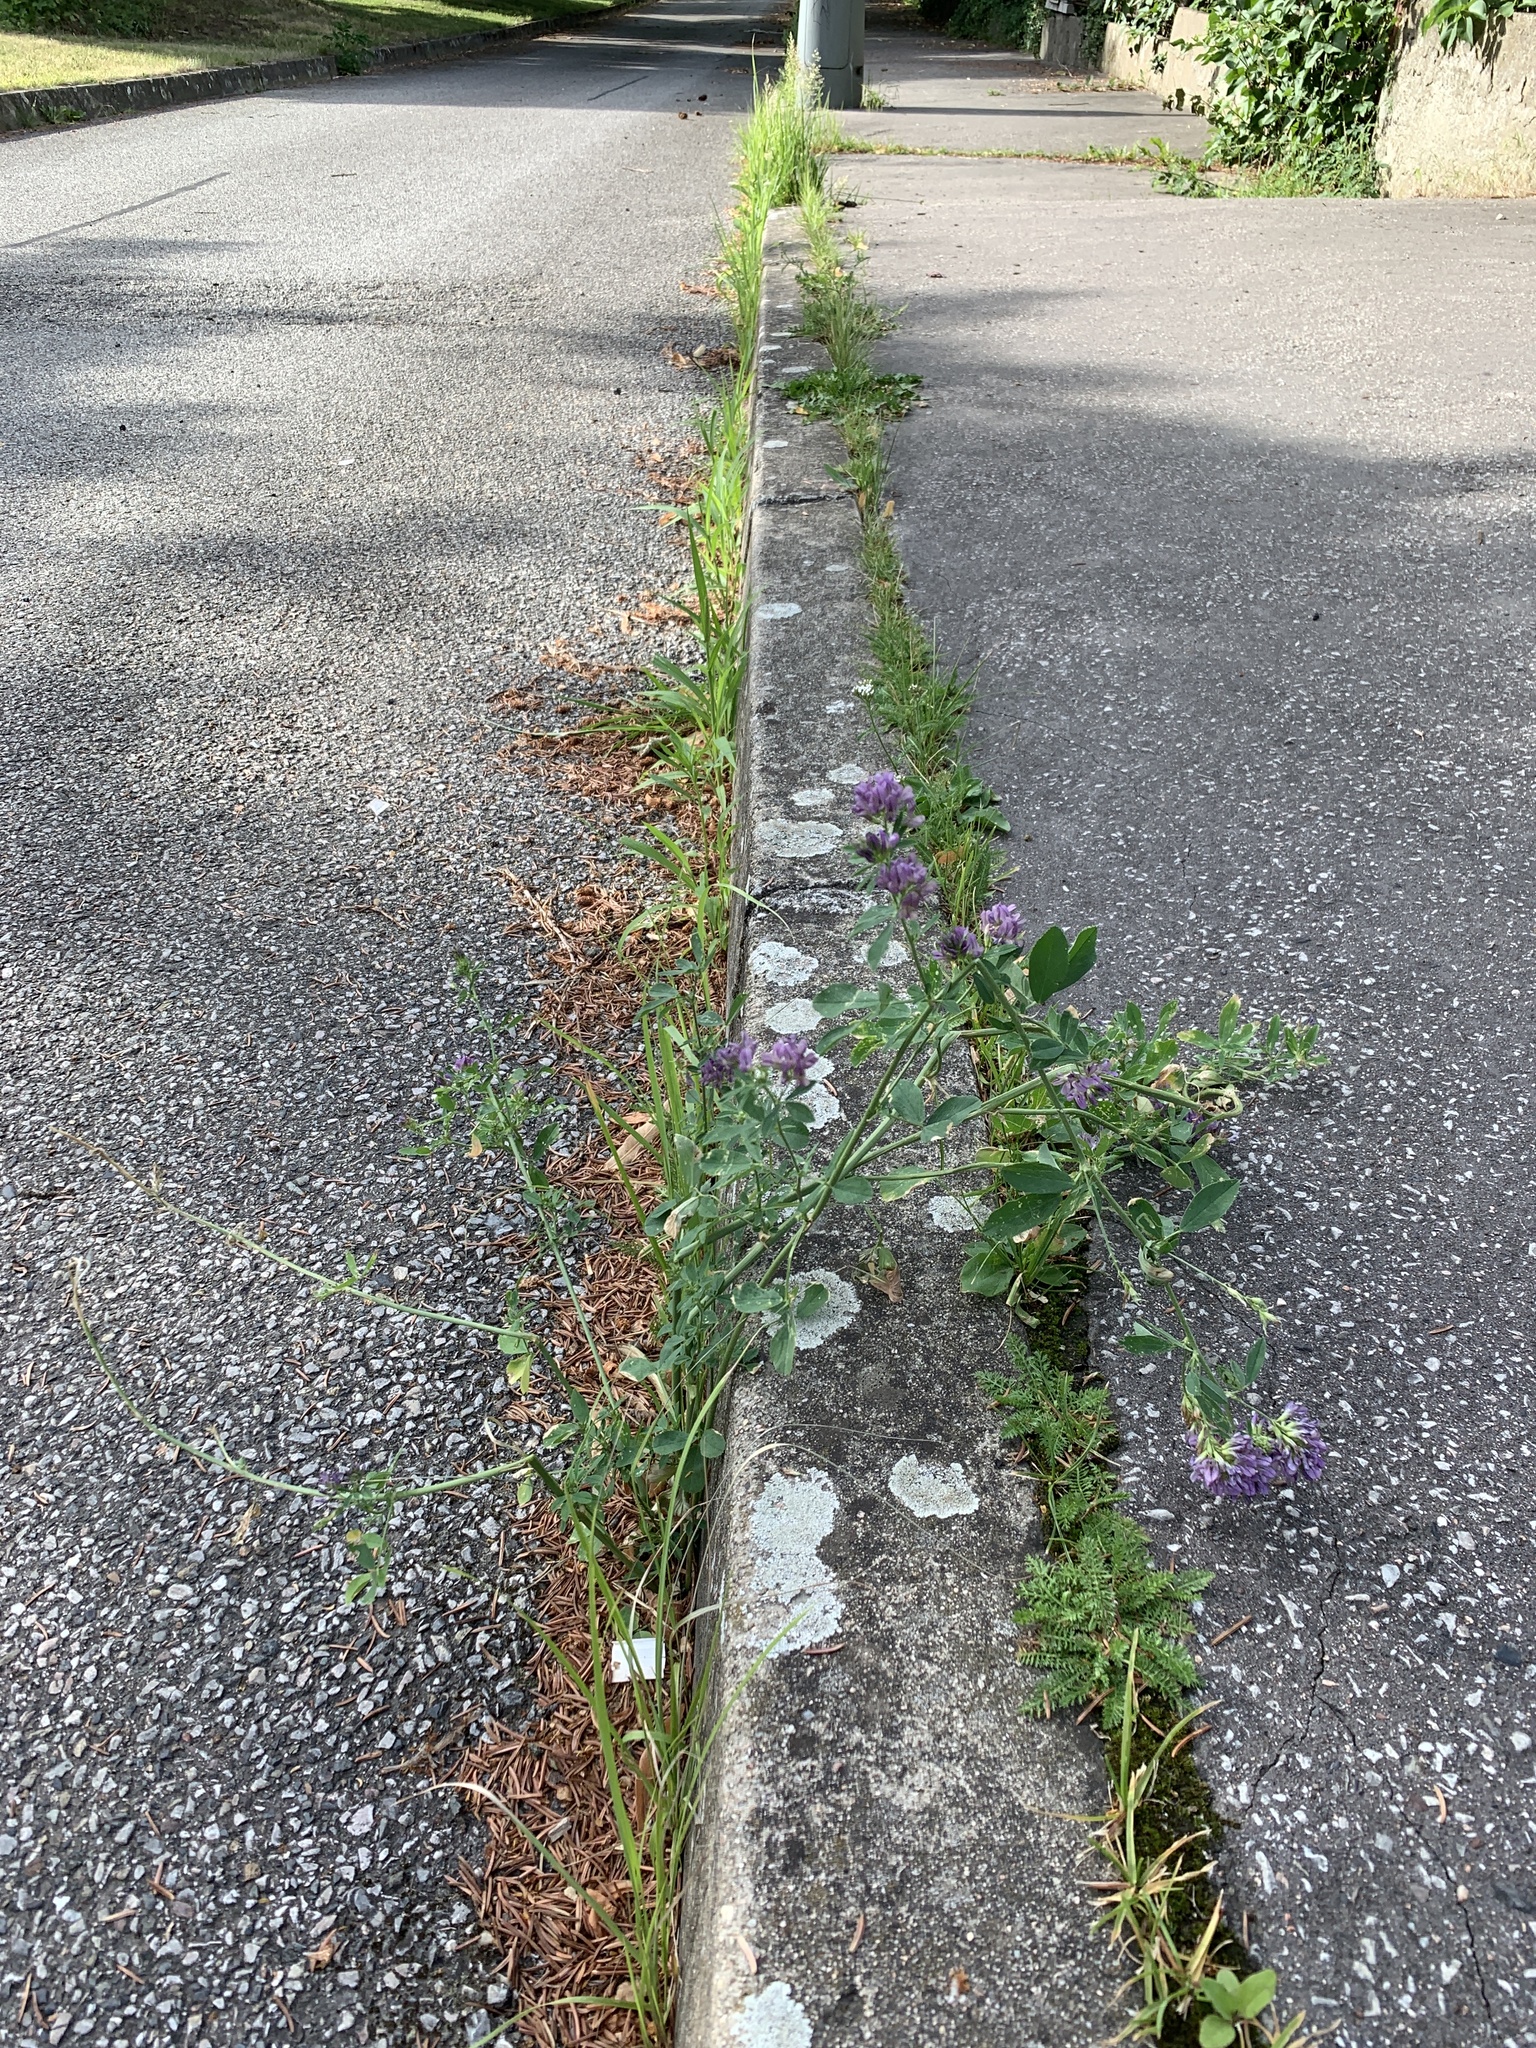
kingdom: Plantae
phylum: Tracheophyta
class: Magnoliopsida
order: Fabales
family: Fabaceae
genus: Medicago
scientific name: Medicago sativa
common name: Alfalfa
